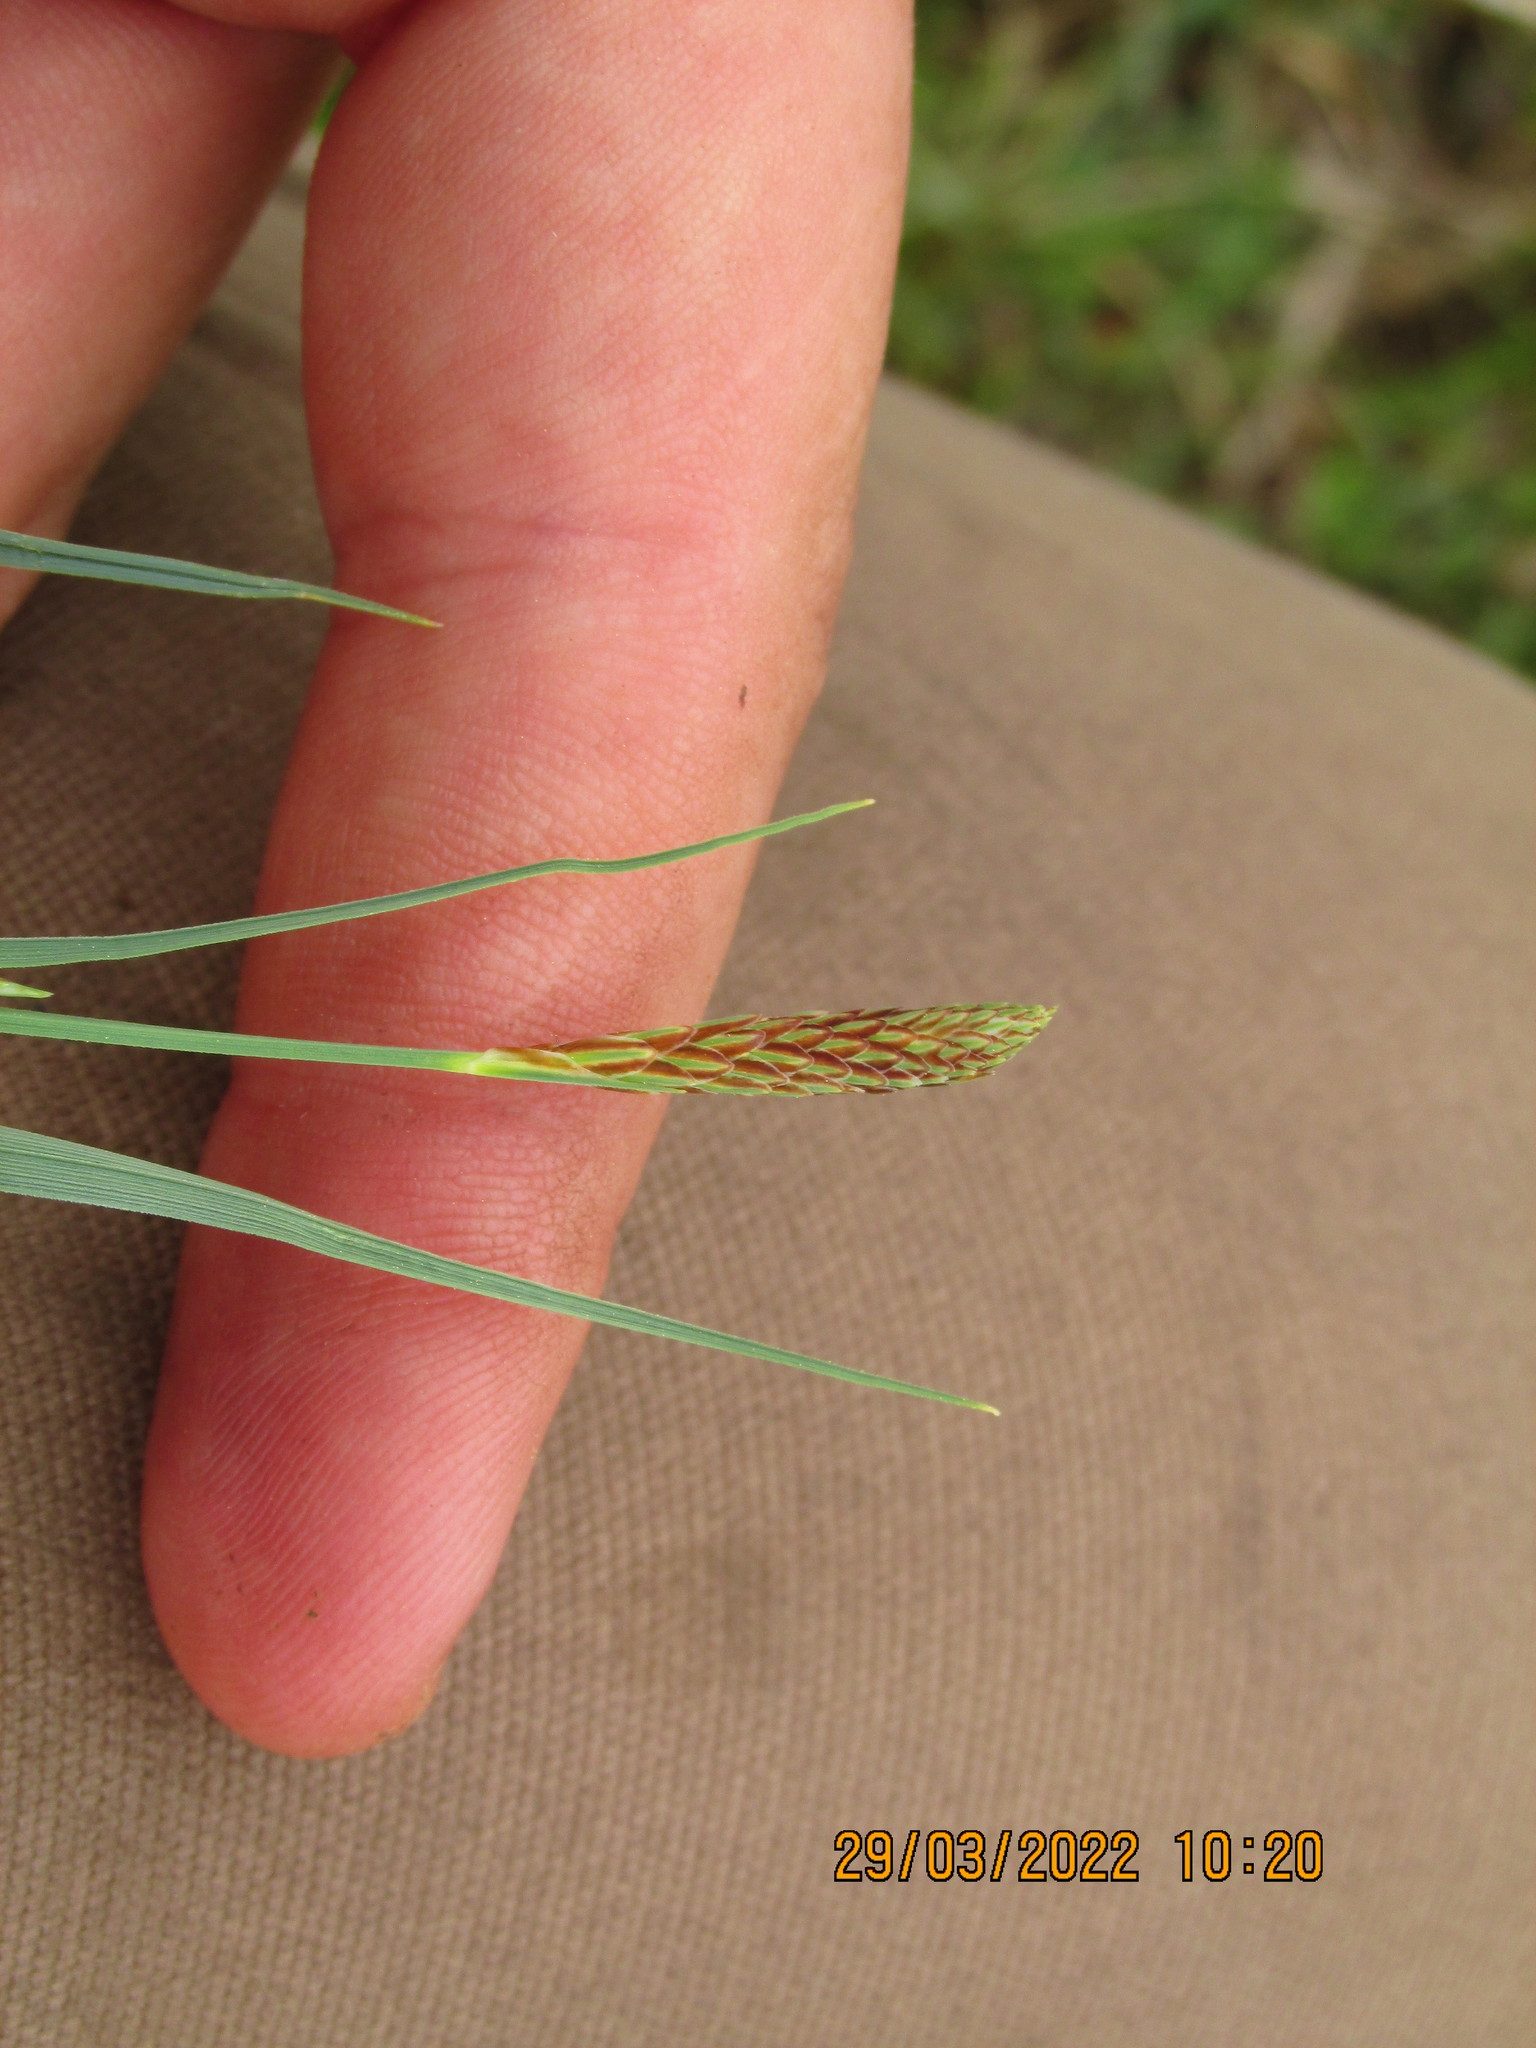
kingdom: Plantae
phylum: Tracheophyta
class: Liliopsida
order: Poales
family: Cyperaceae
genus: Carex
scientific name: Carex meadii
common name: Mead's sedge
